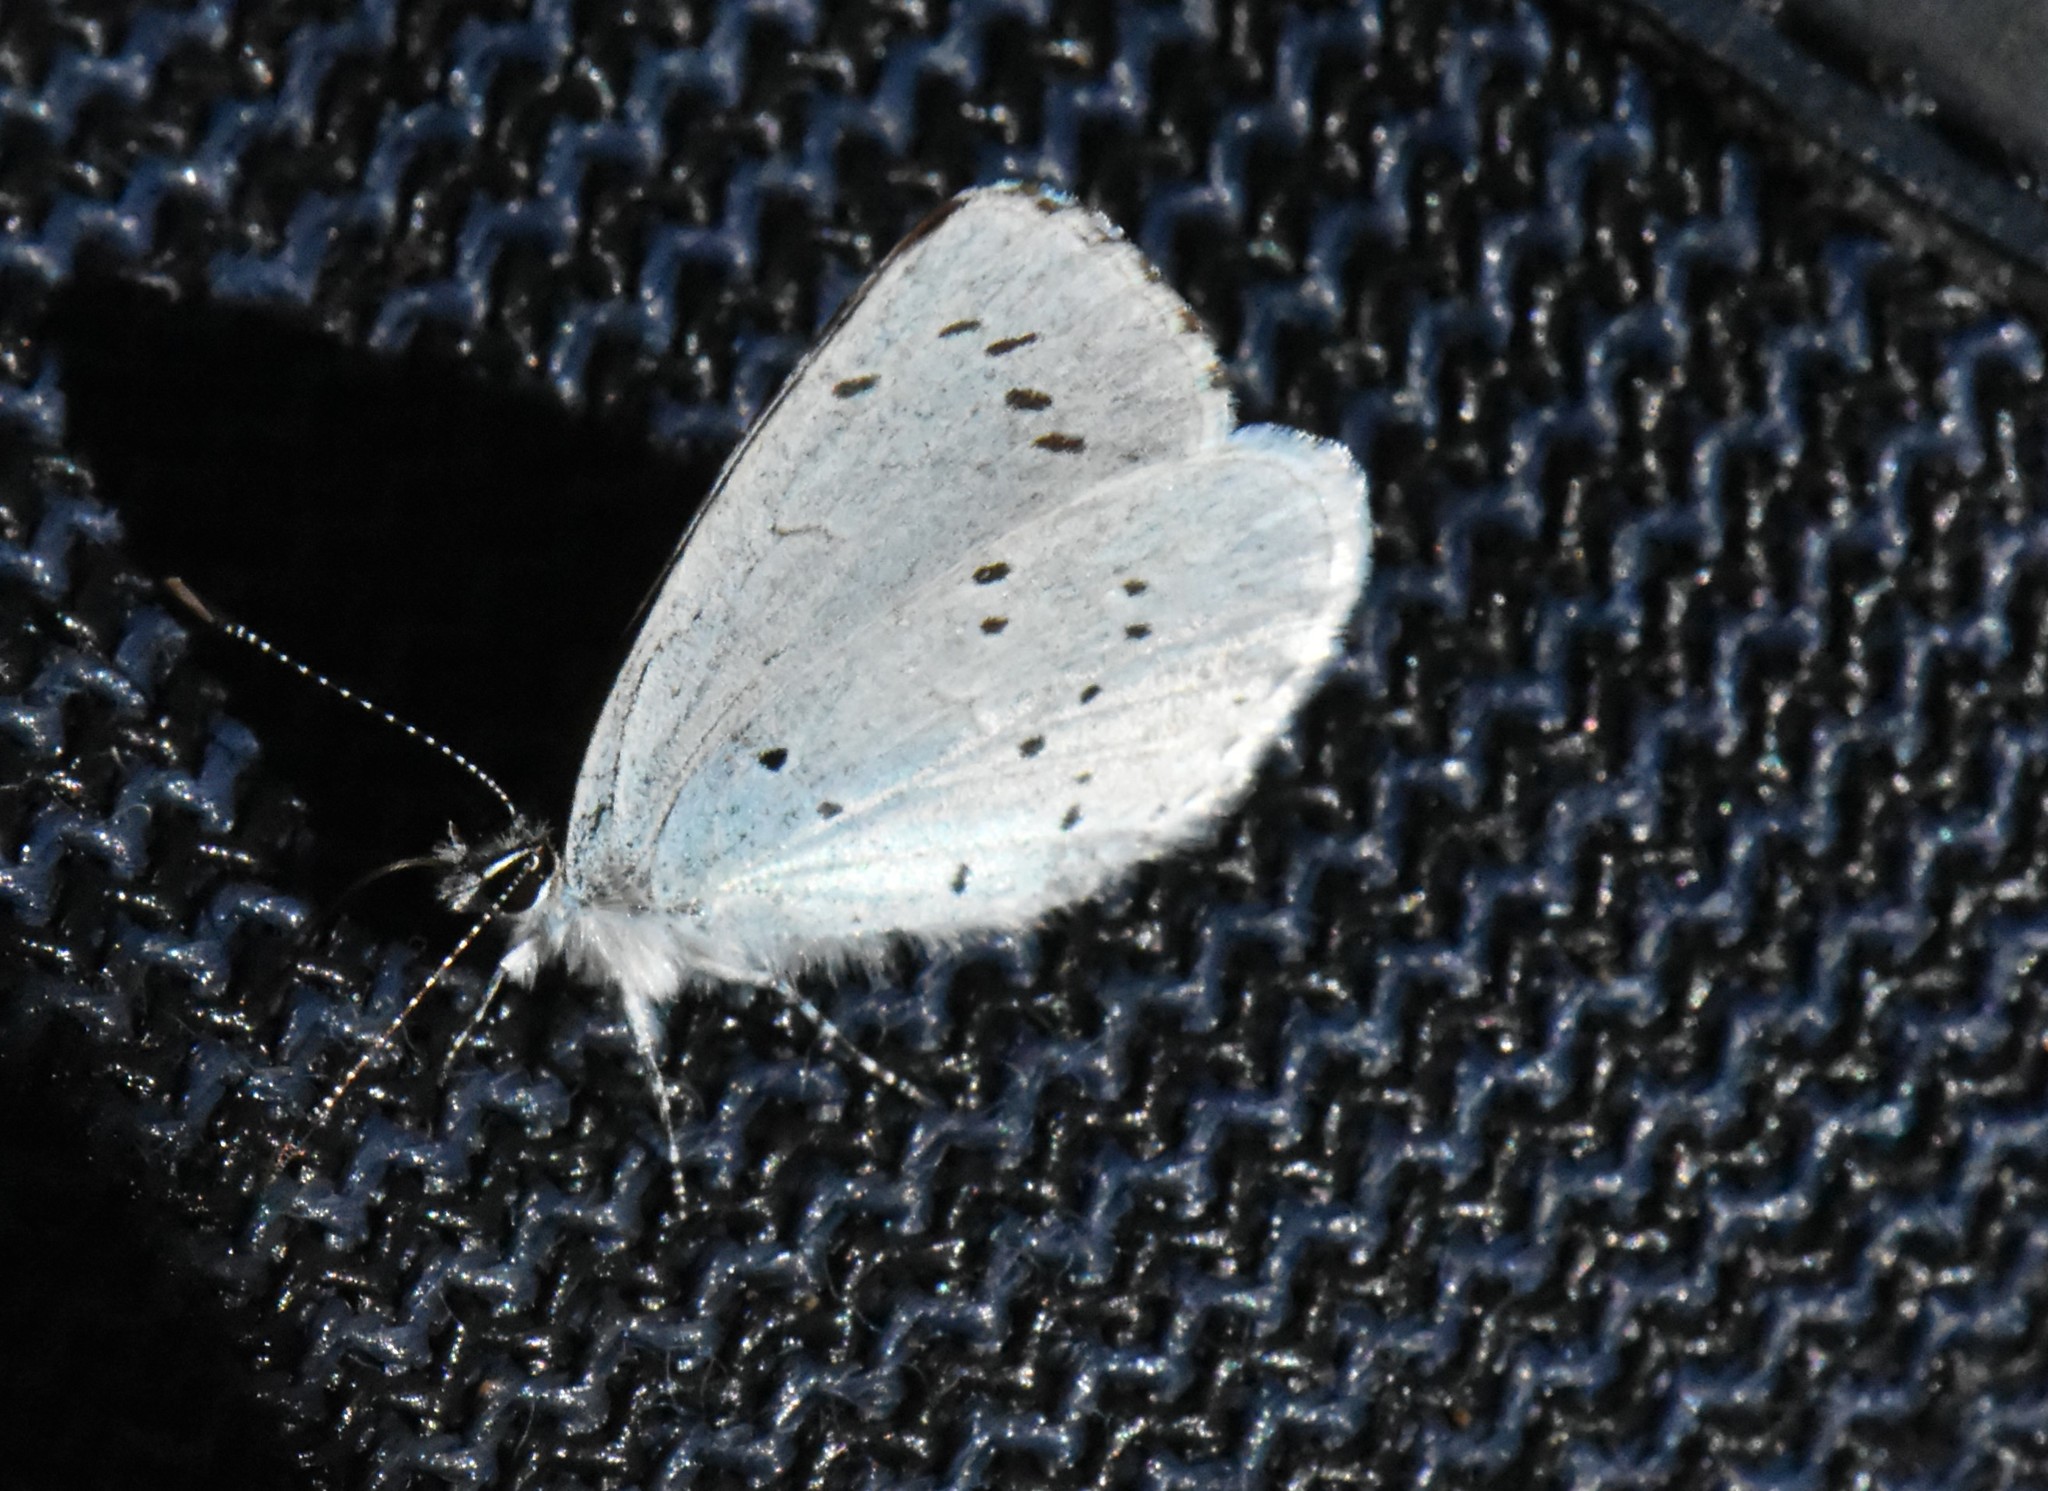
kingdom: Animalia
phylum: Arthropoda
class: Insecta
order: Lepidoptera
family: Lycaenidae
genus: Celastrina
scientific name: Celastrina argiolus
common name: Holly blue
